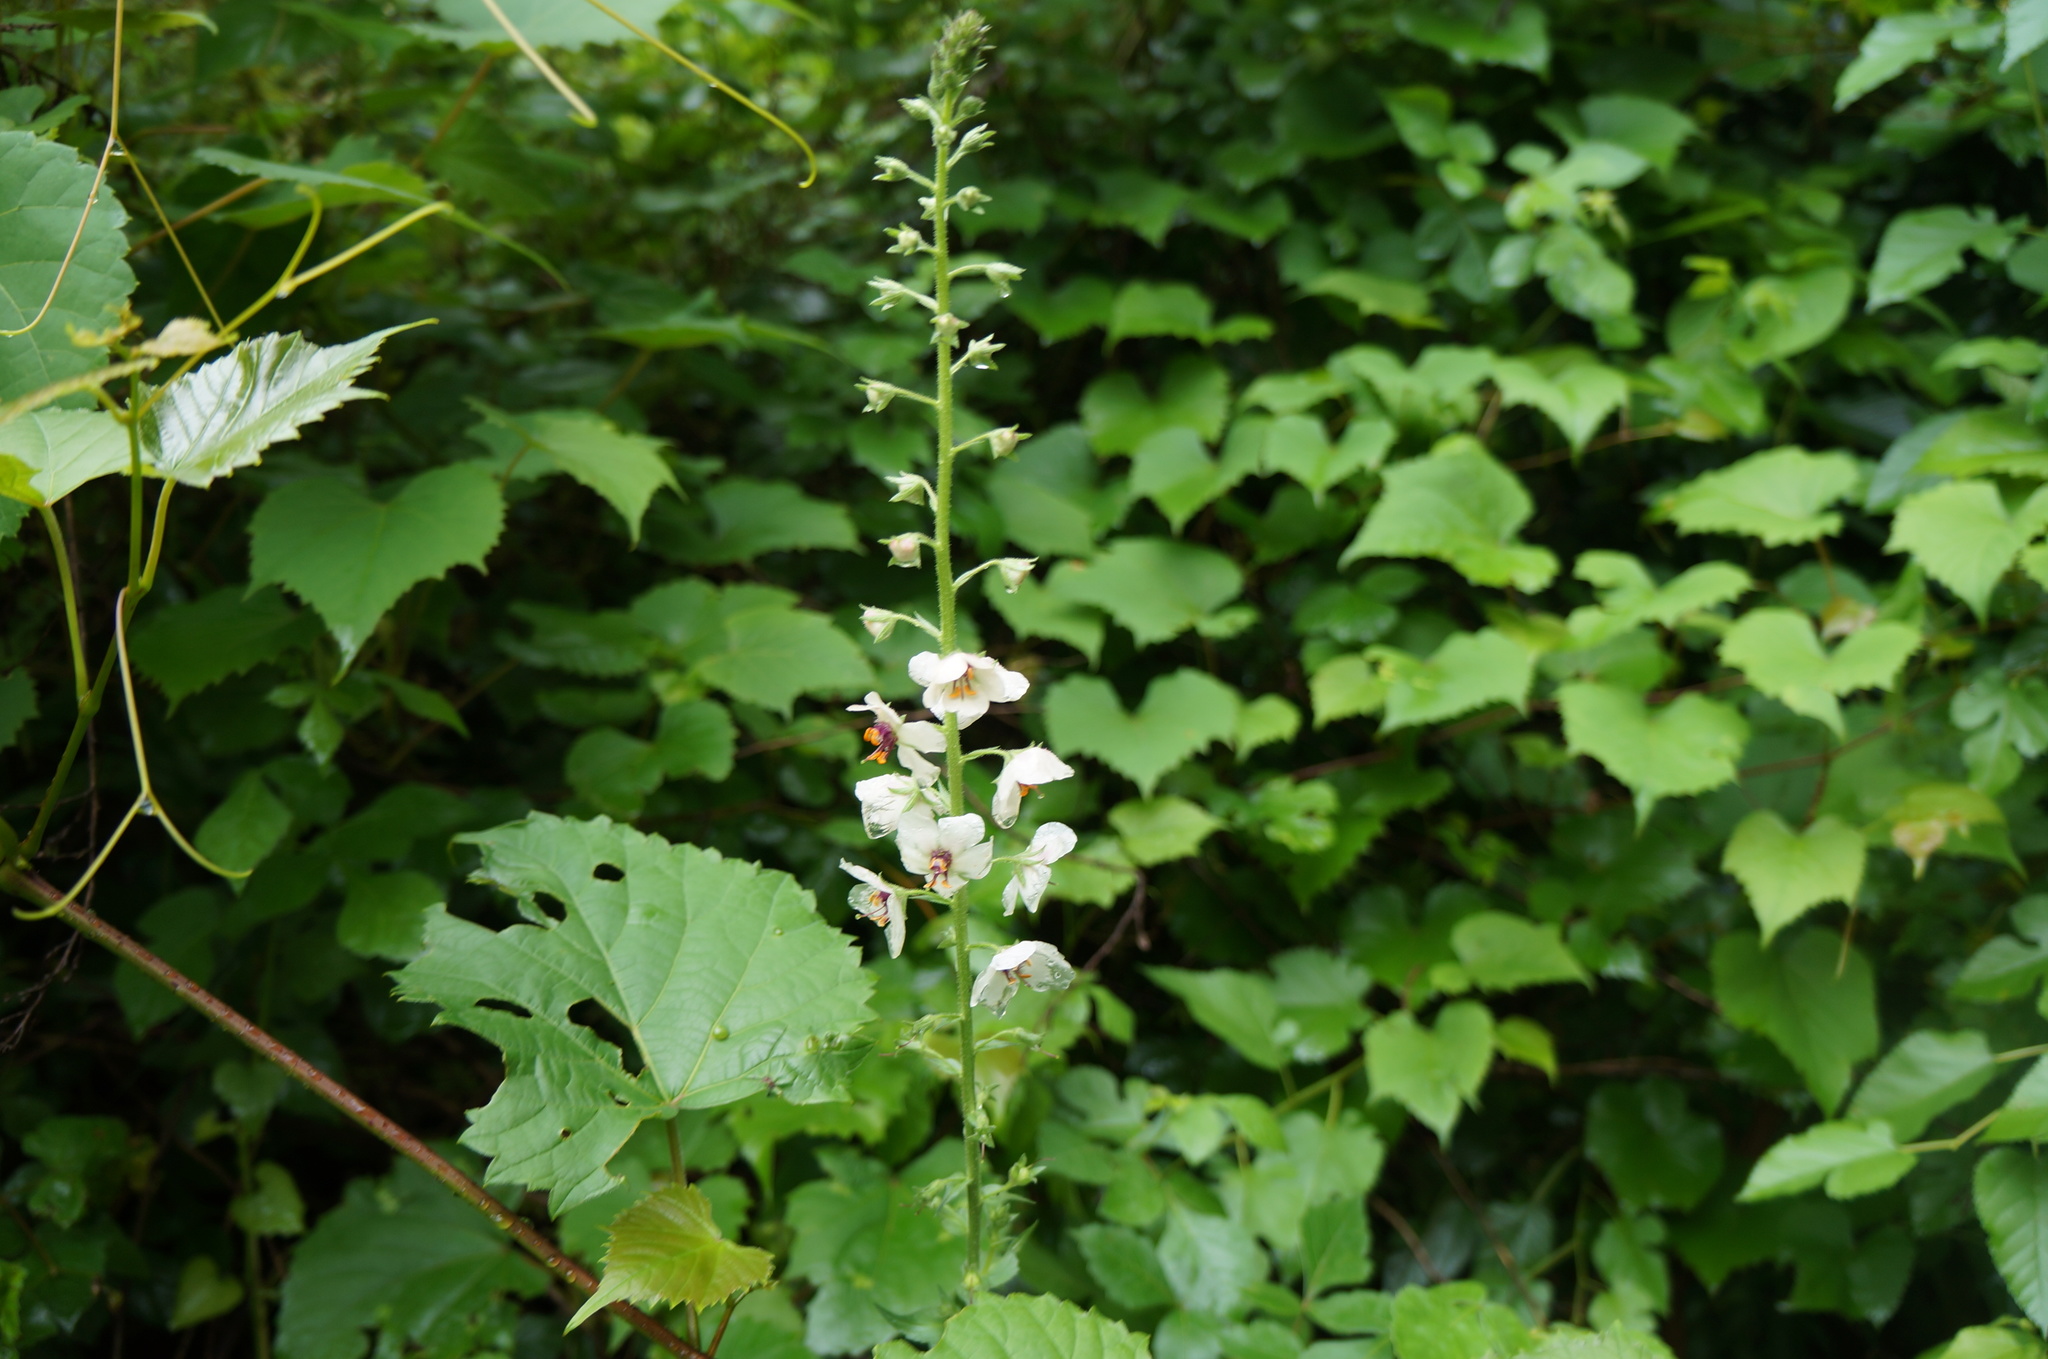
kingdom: Plantae
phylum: Tracheophyta
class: Magnoliopsida
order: Lamiales
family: Scrophulariaceae
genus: Verbascum
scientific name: Verbascum blattaria
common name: Moth mullein
